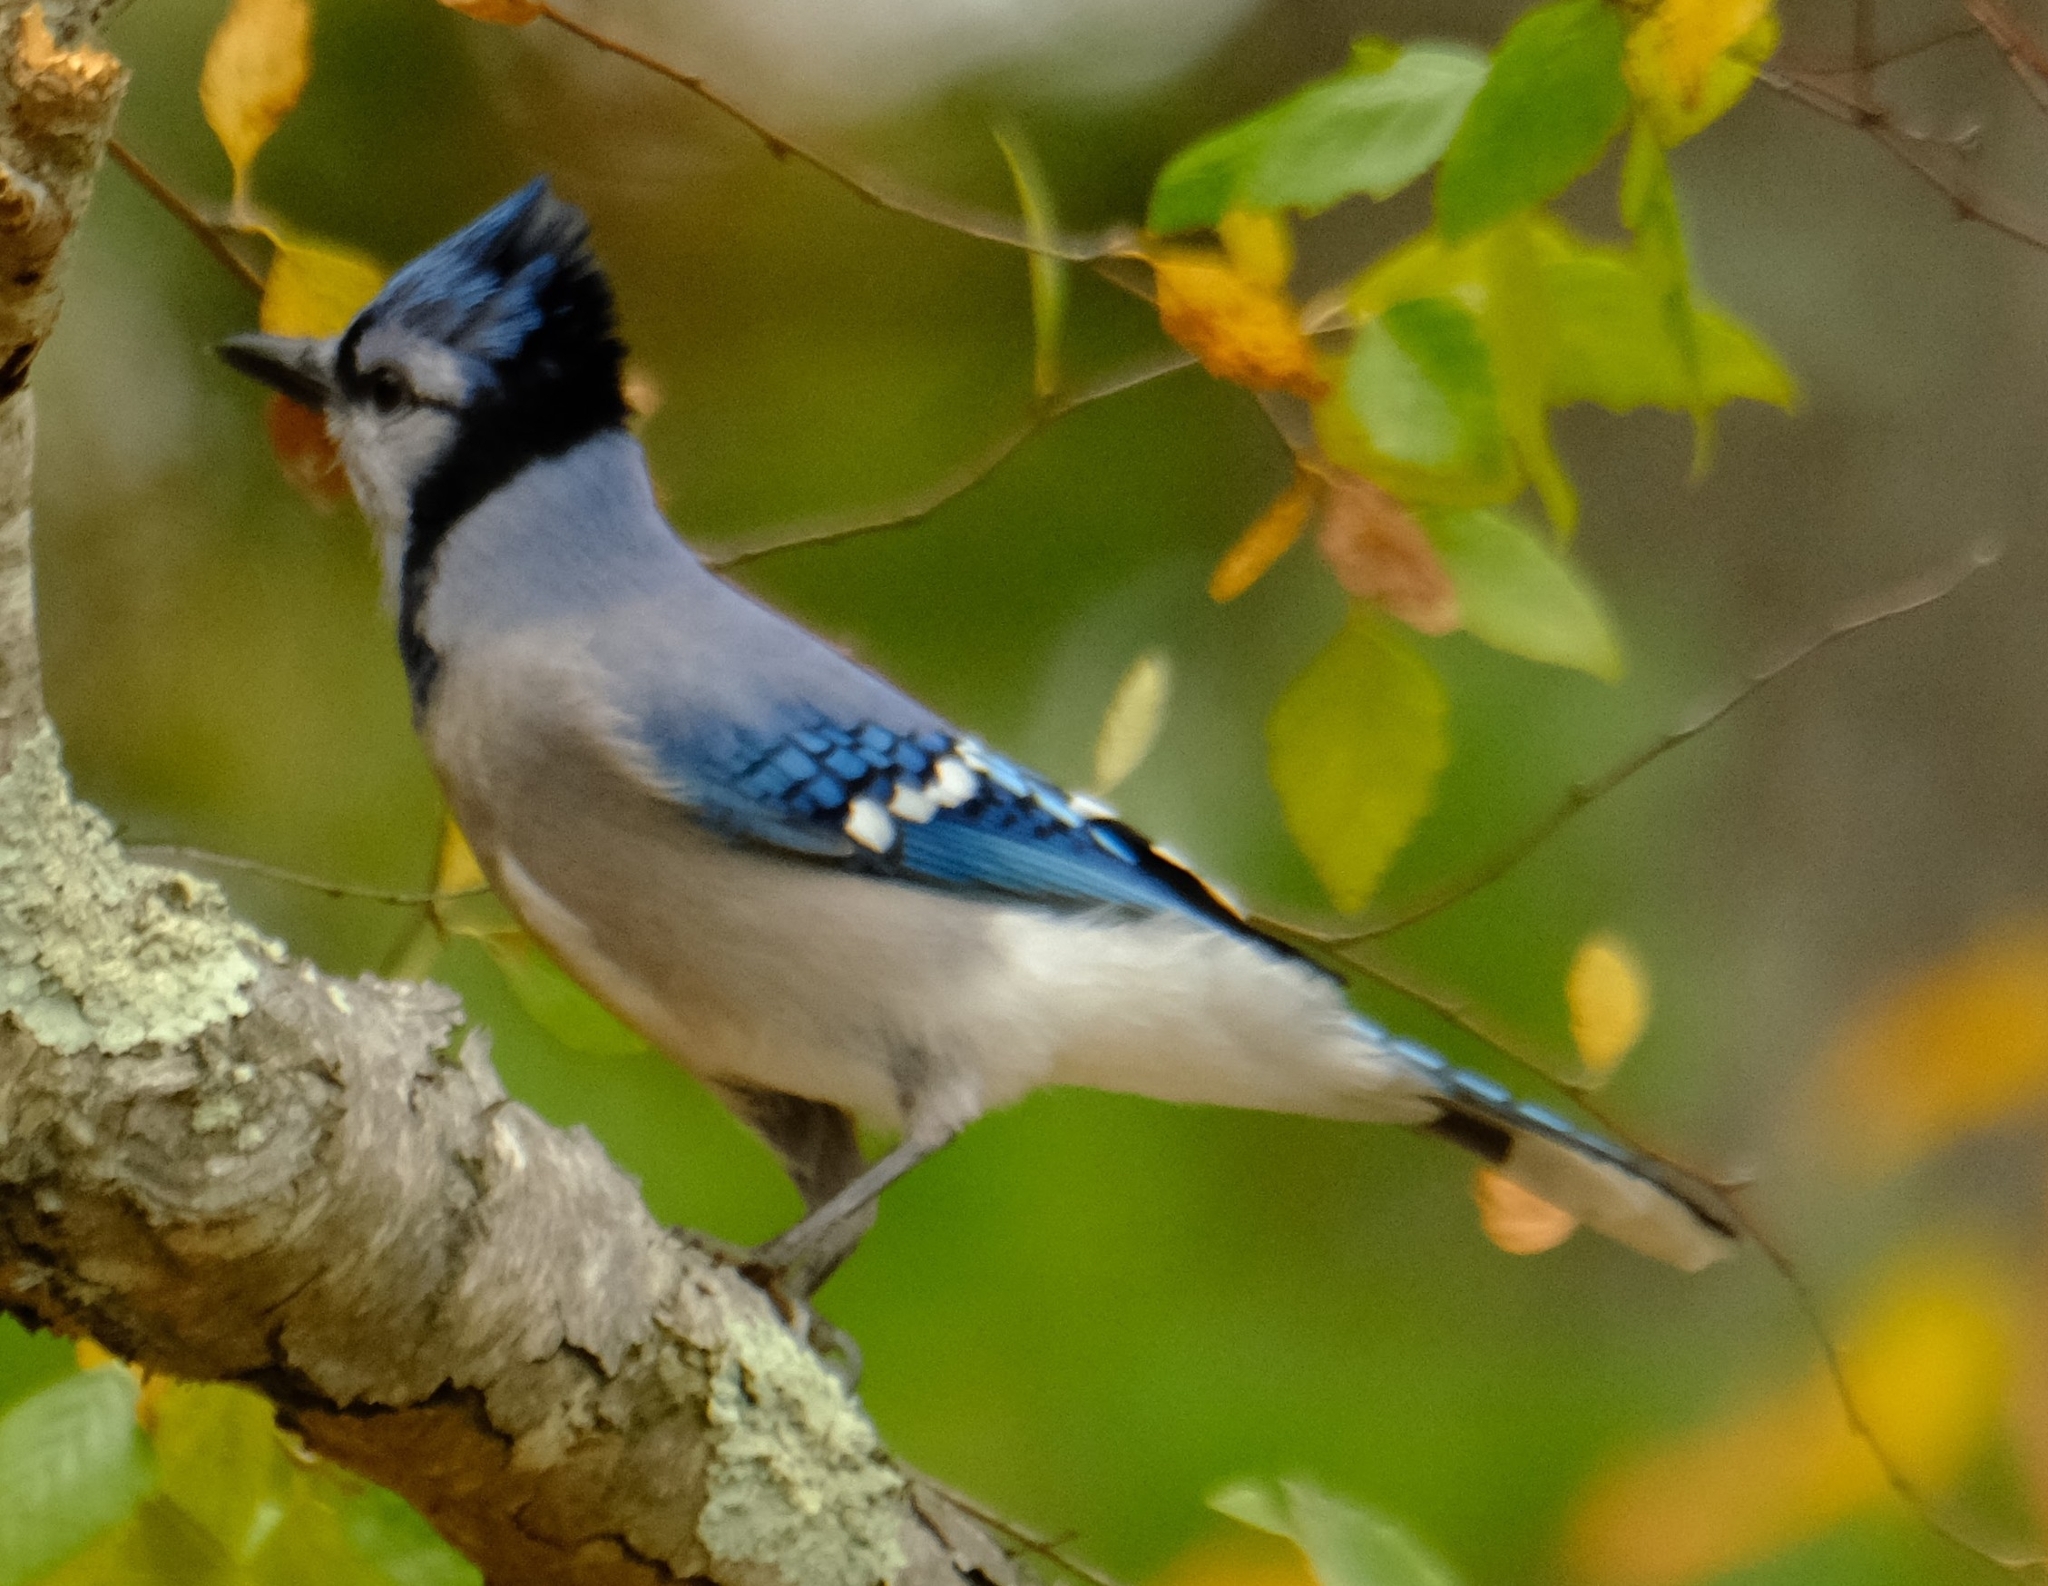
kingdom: Animalia
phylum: Chordata
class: Aves
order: Passeriformes
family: Corvidae
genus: Cyanocitta
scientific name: Cyanocitta cristata
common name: Blue jay
